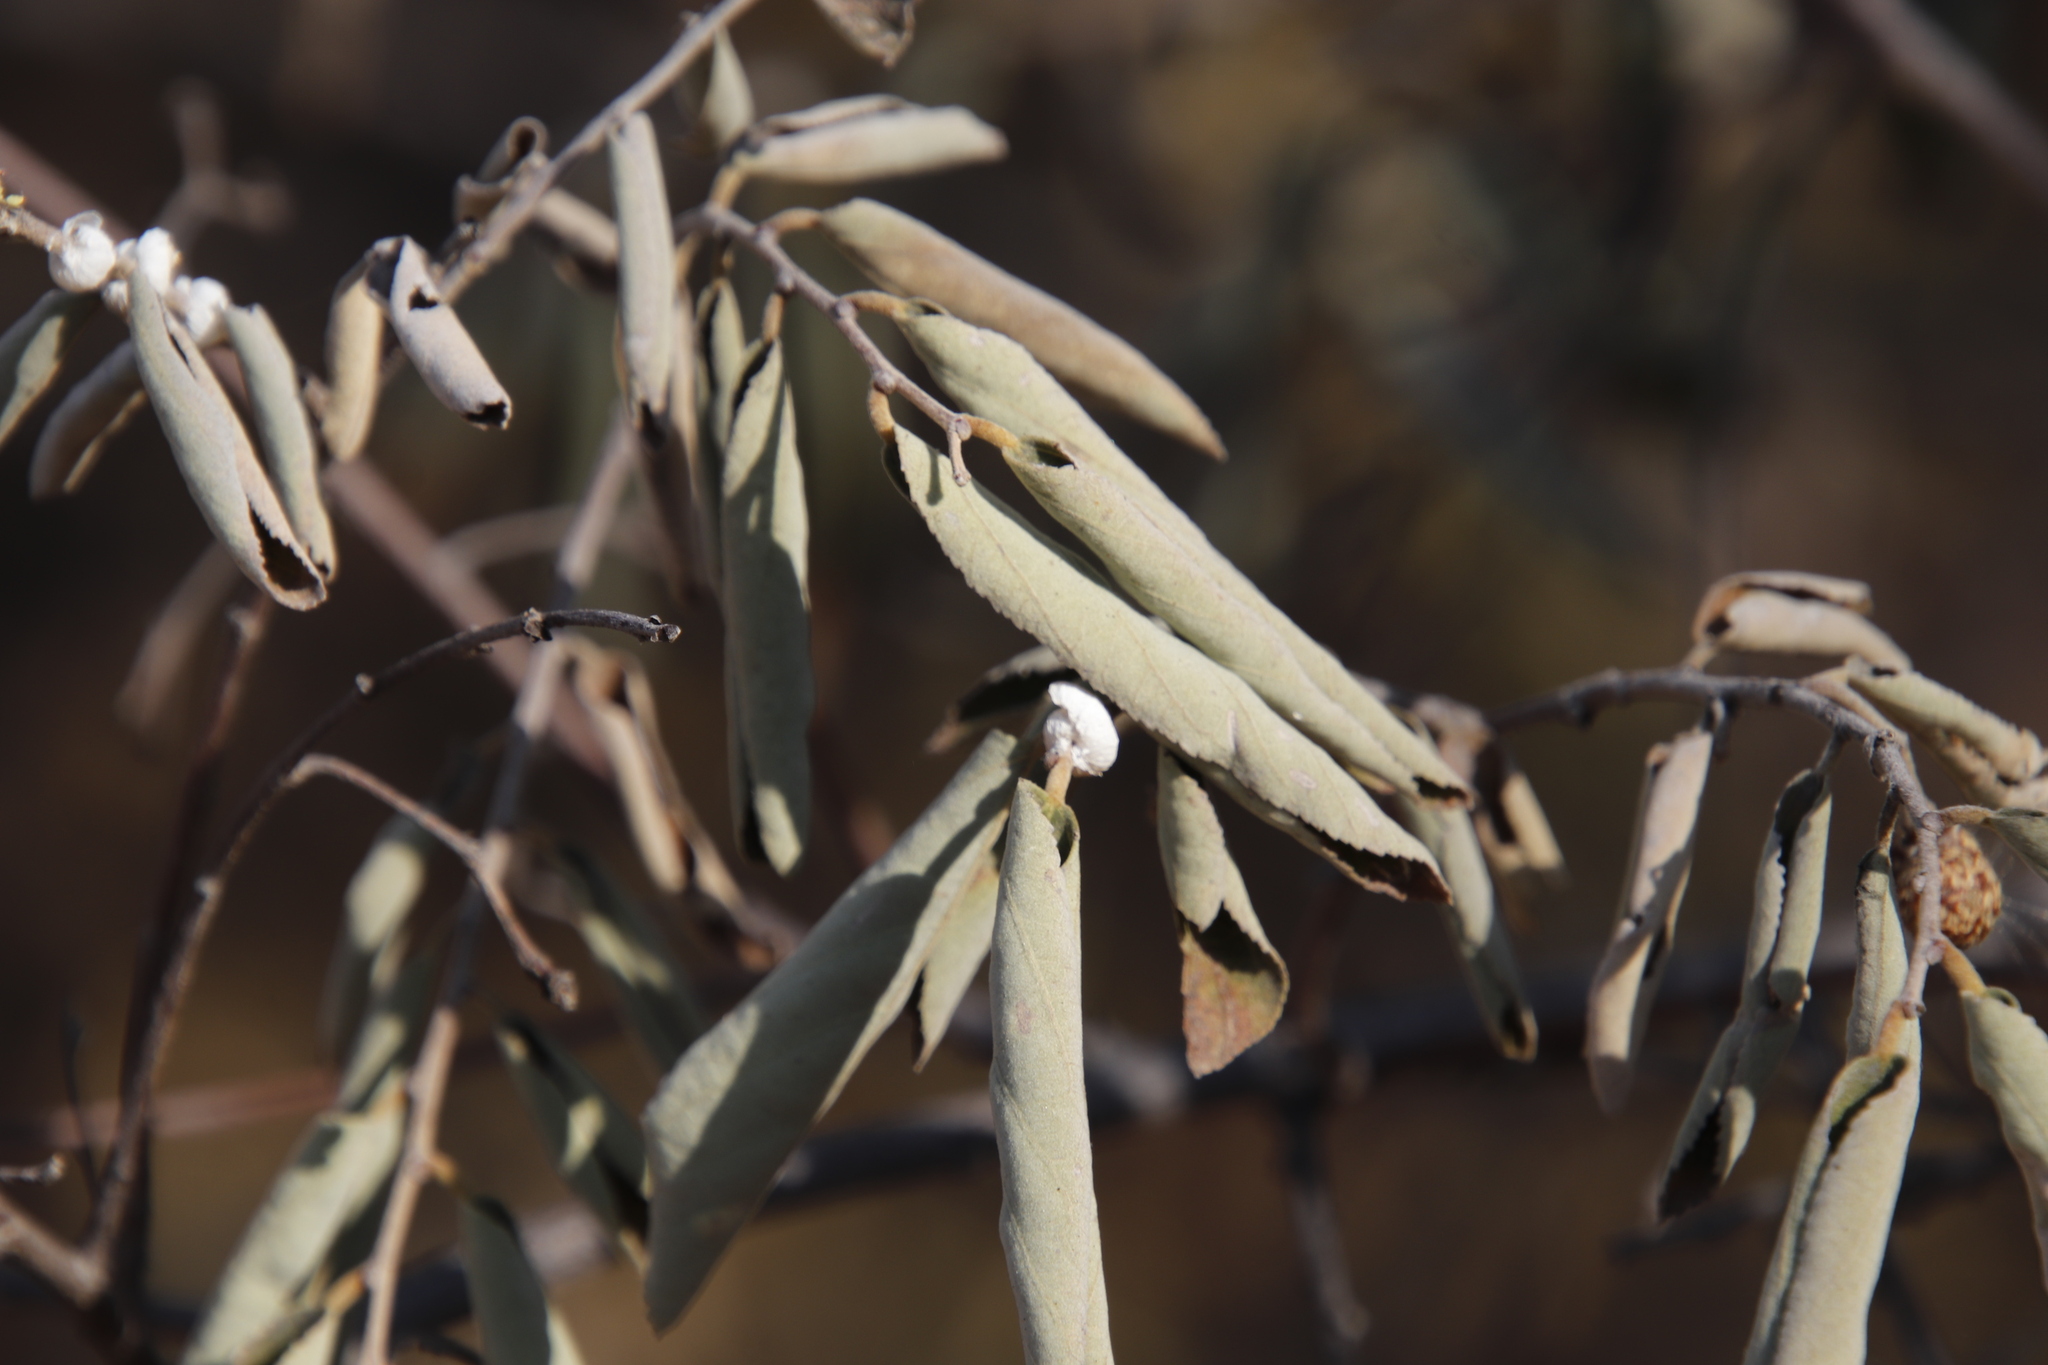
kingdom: Plantae
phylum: Tracheophyta
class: Magnoliopsida
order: Malvales
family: Malvaceae
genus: Grewia
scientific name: Grewia bicolor
